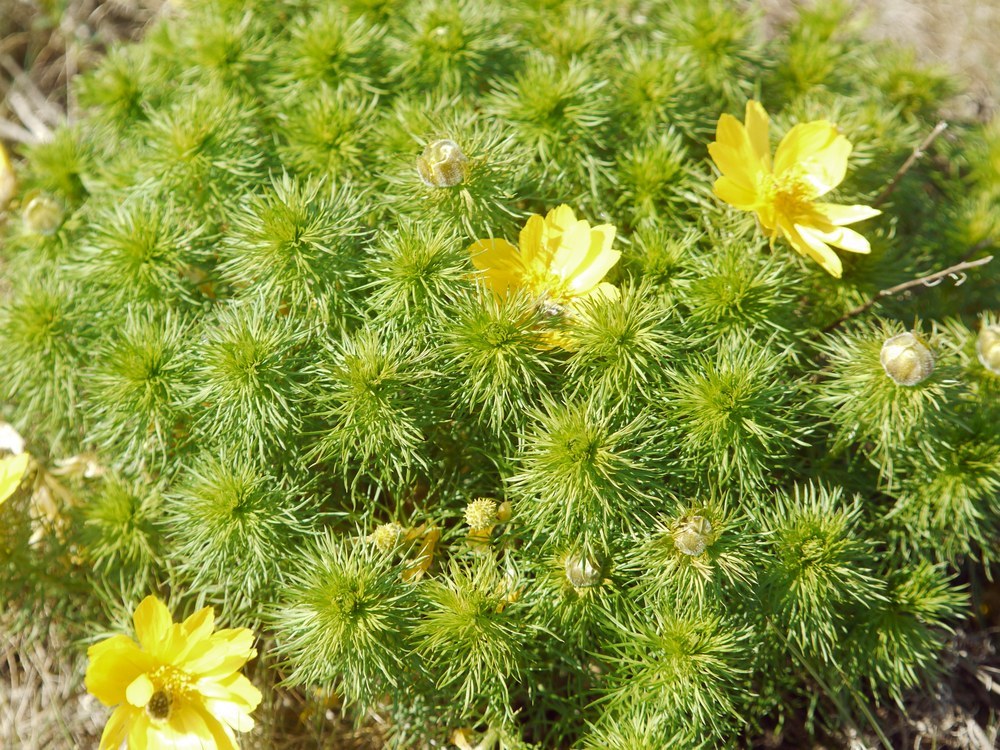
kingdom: Plantae
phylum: Tracheophyta
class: Magnoliopsida
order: Ranunculales
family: Ranunculaceae
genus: Adonis
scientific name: Adonis vernalis
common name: Yellow pheasants-eye
